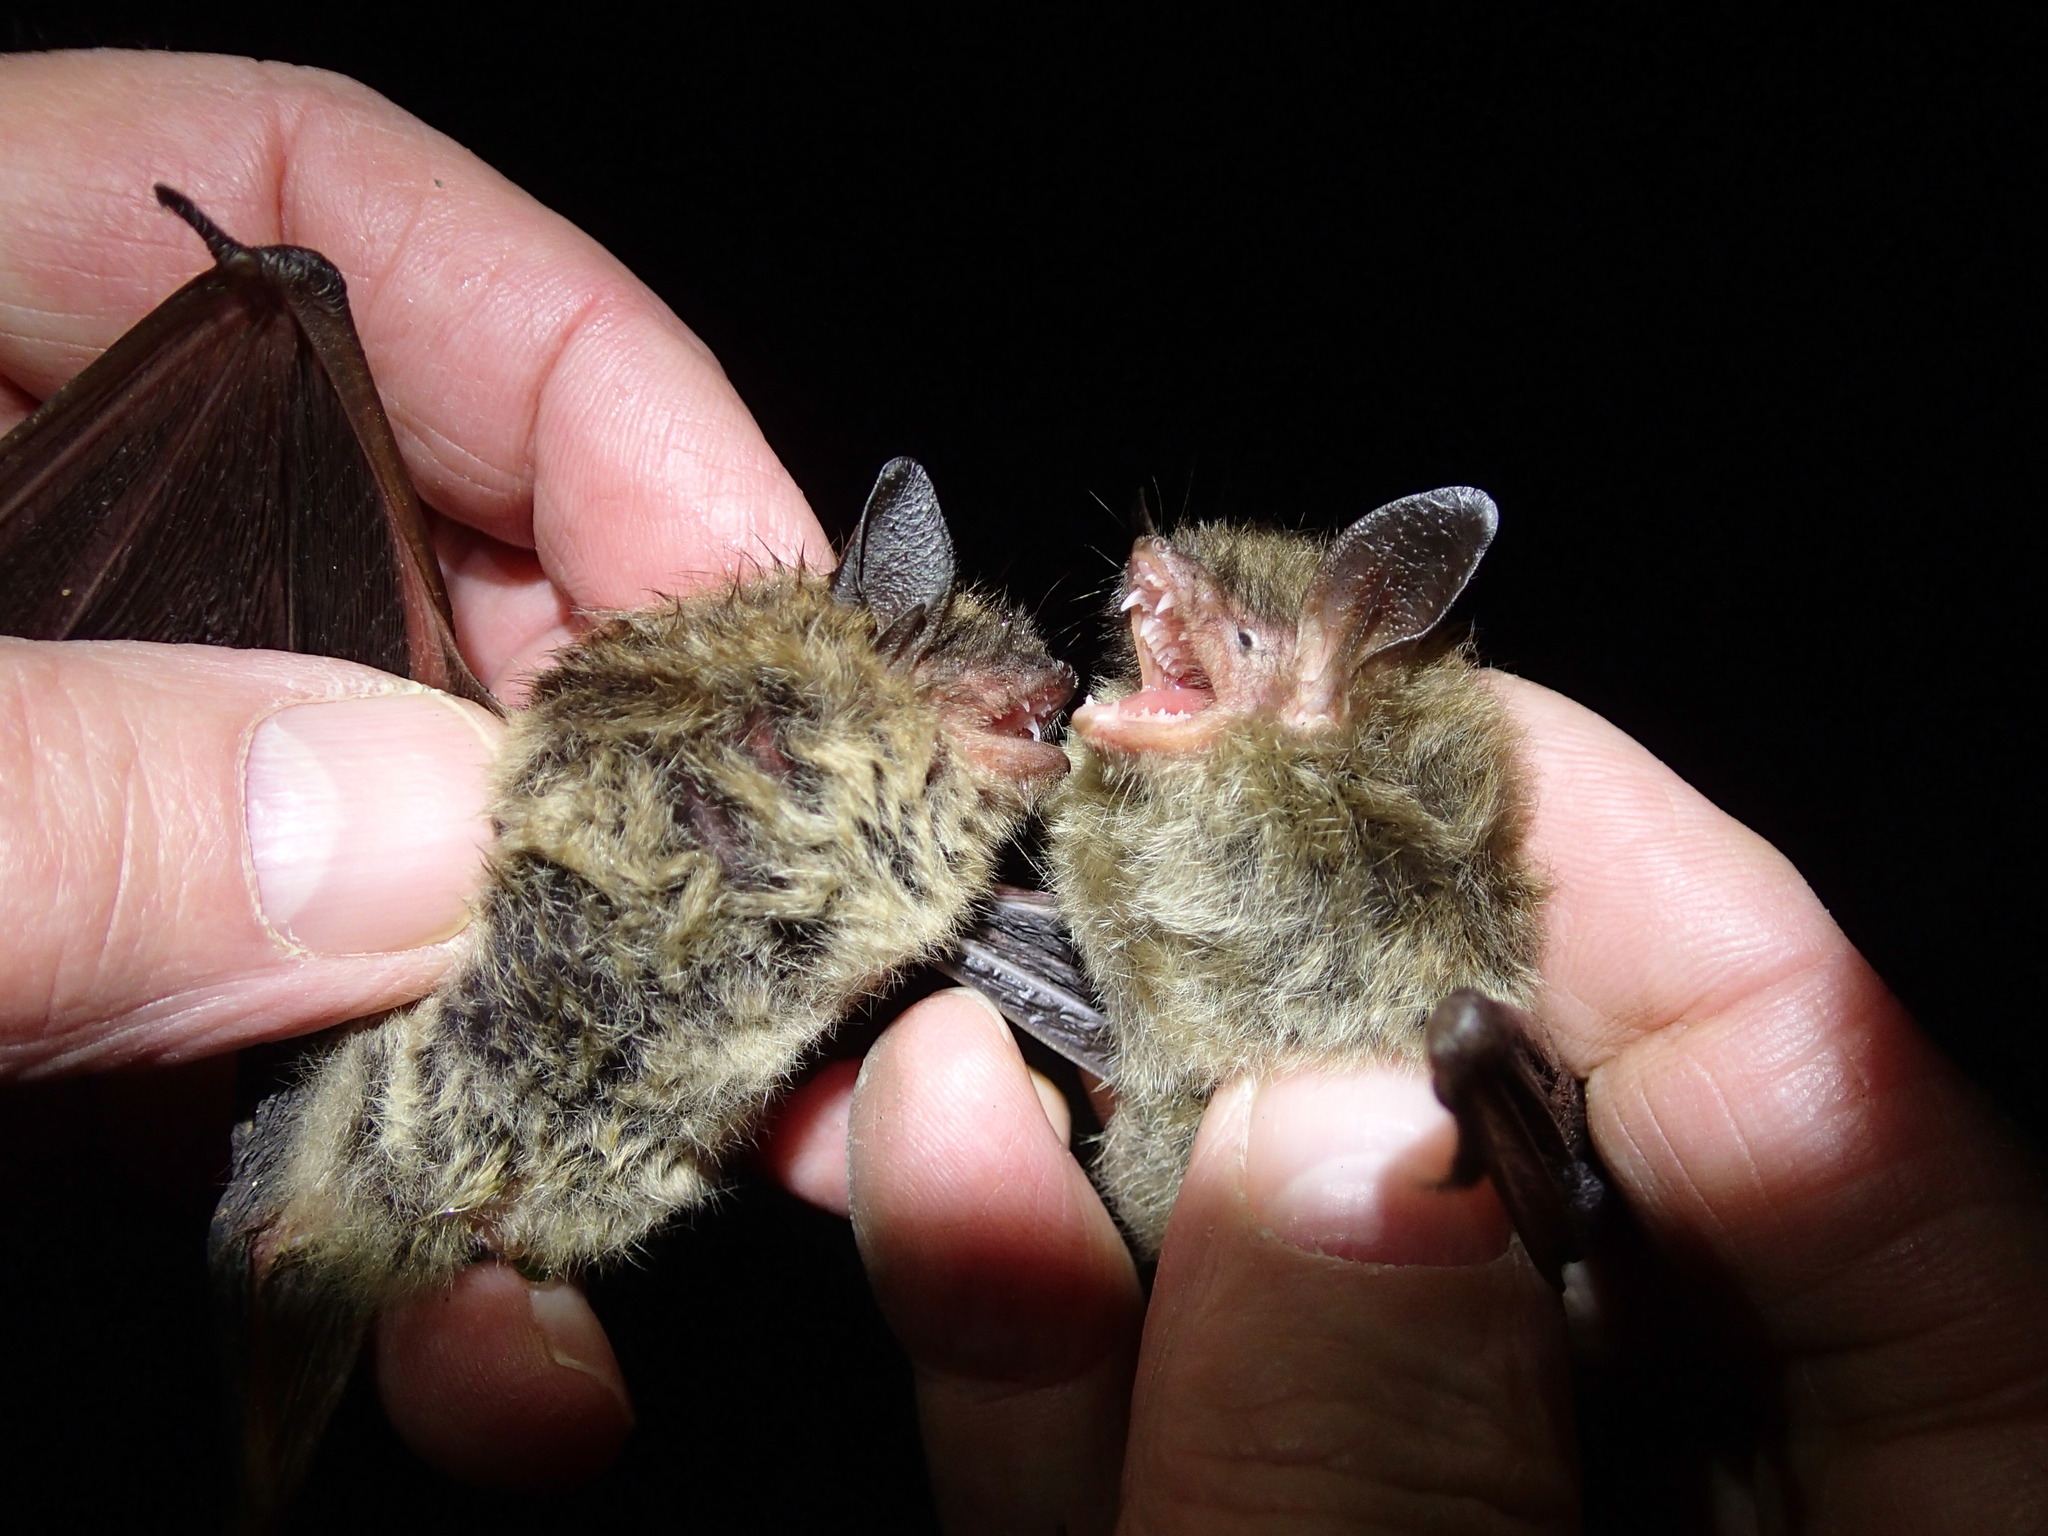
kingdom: Animalia
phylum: Chordata
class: Mammalia
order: Chiroptera
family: Vespertilionidae
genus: Myotis
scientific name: Myotis septentrionalis
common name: Northern myotis
